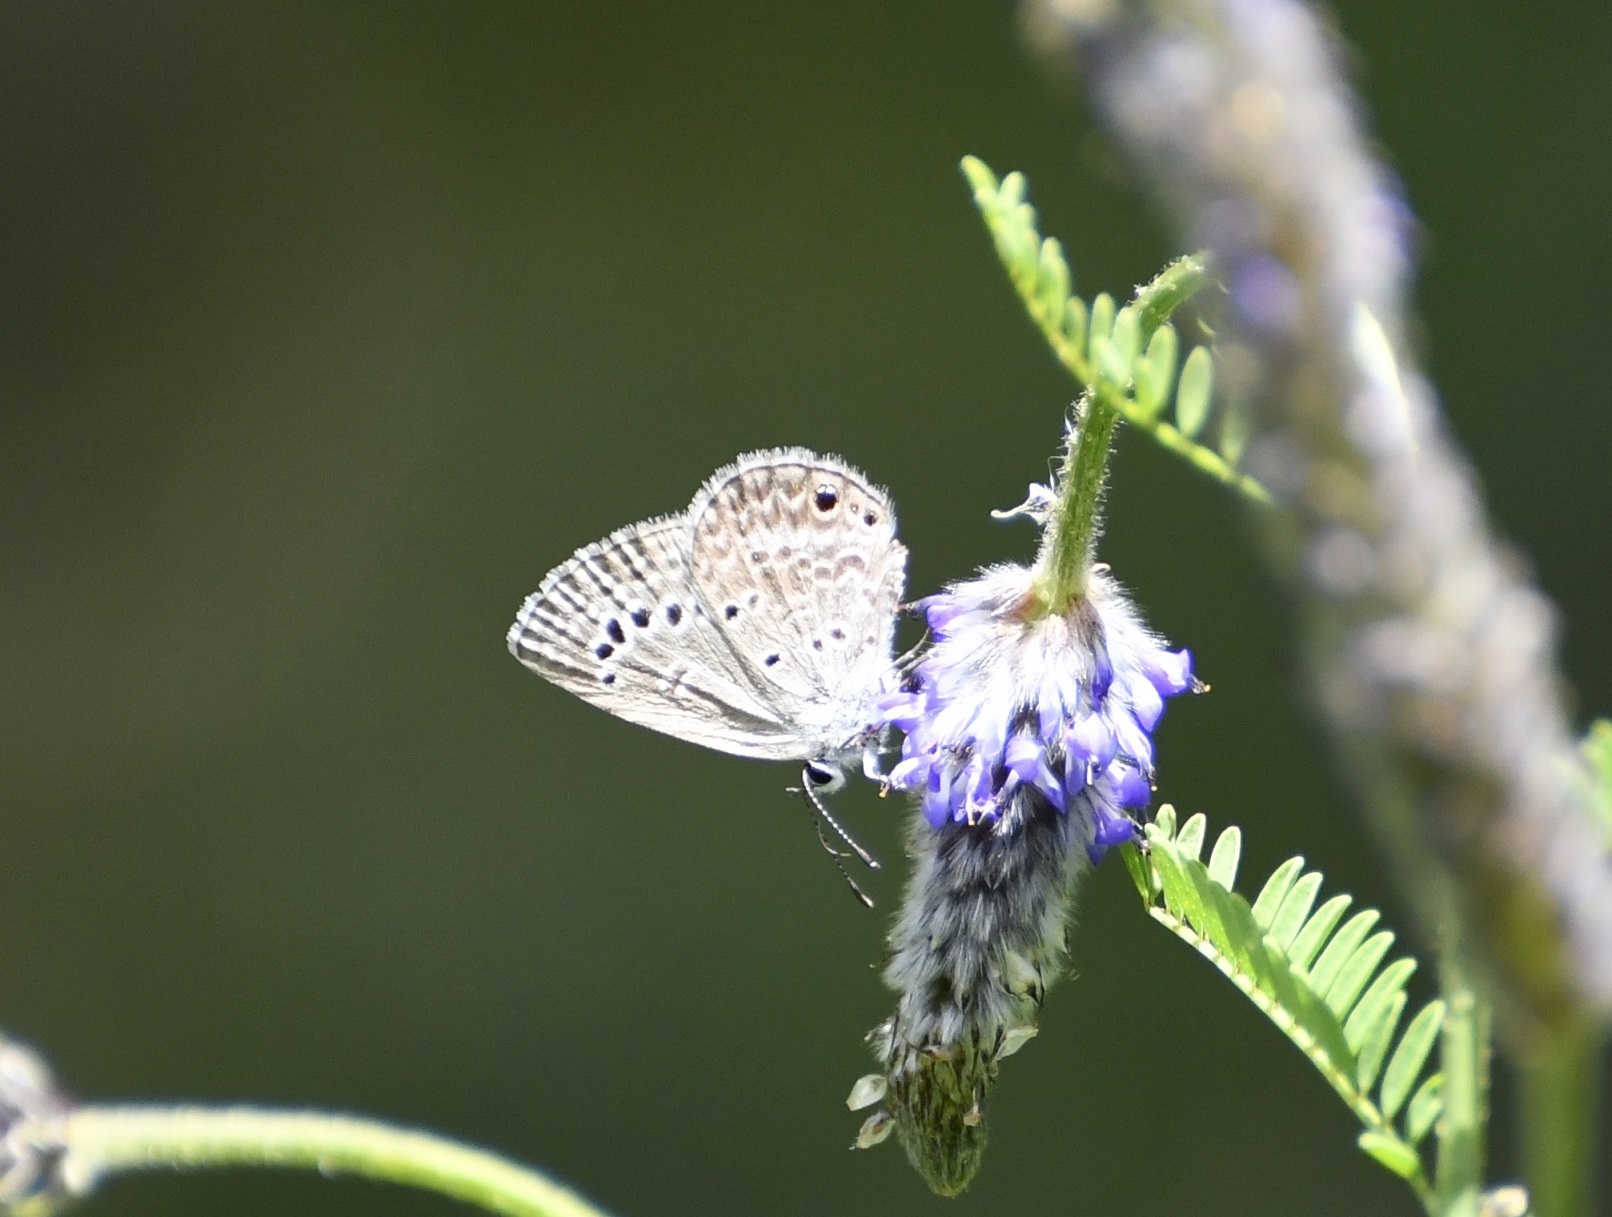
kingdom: Animalia
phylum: Arthropoda
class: Insecta
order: Lepidoptera
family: Lycaenidae
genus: Echinargus
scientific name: Echinargus isola
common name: Reakirt's blue
